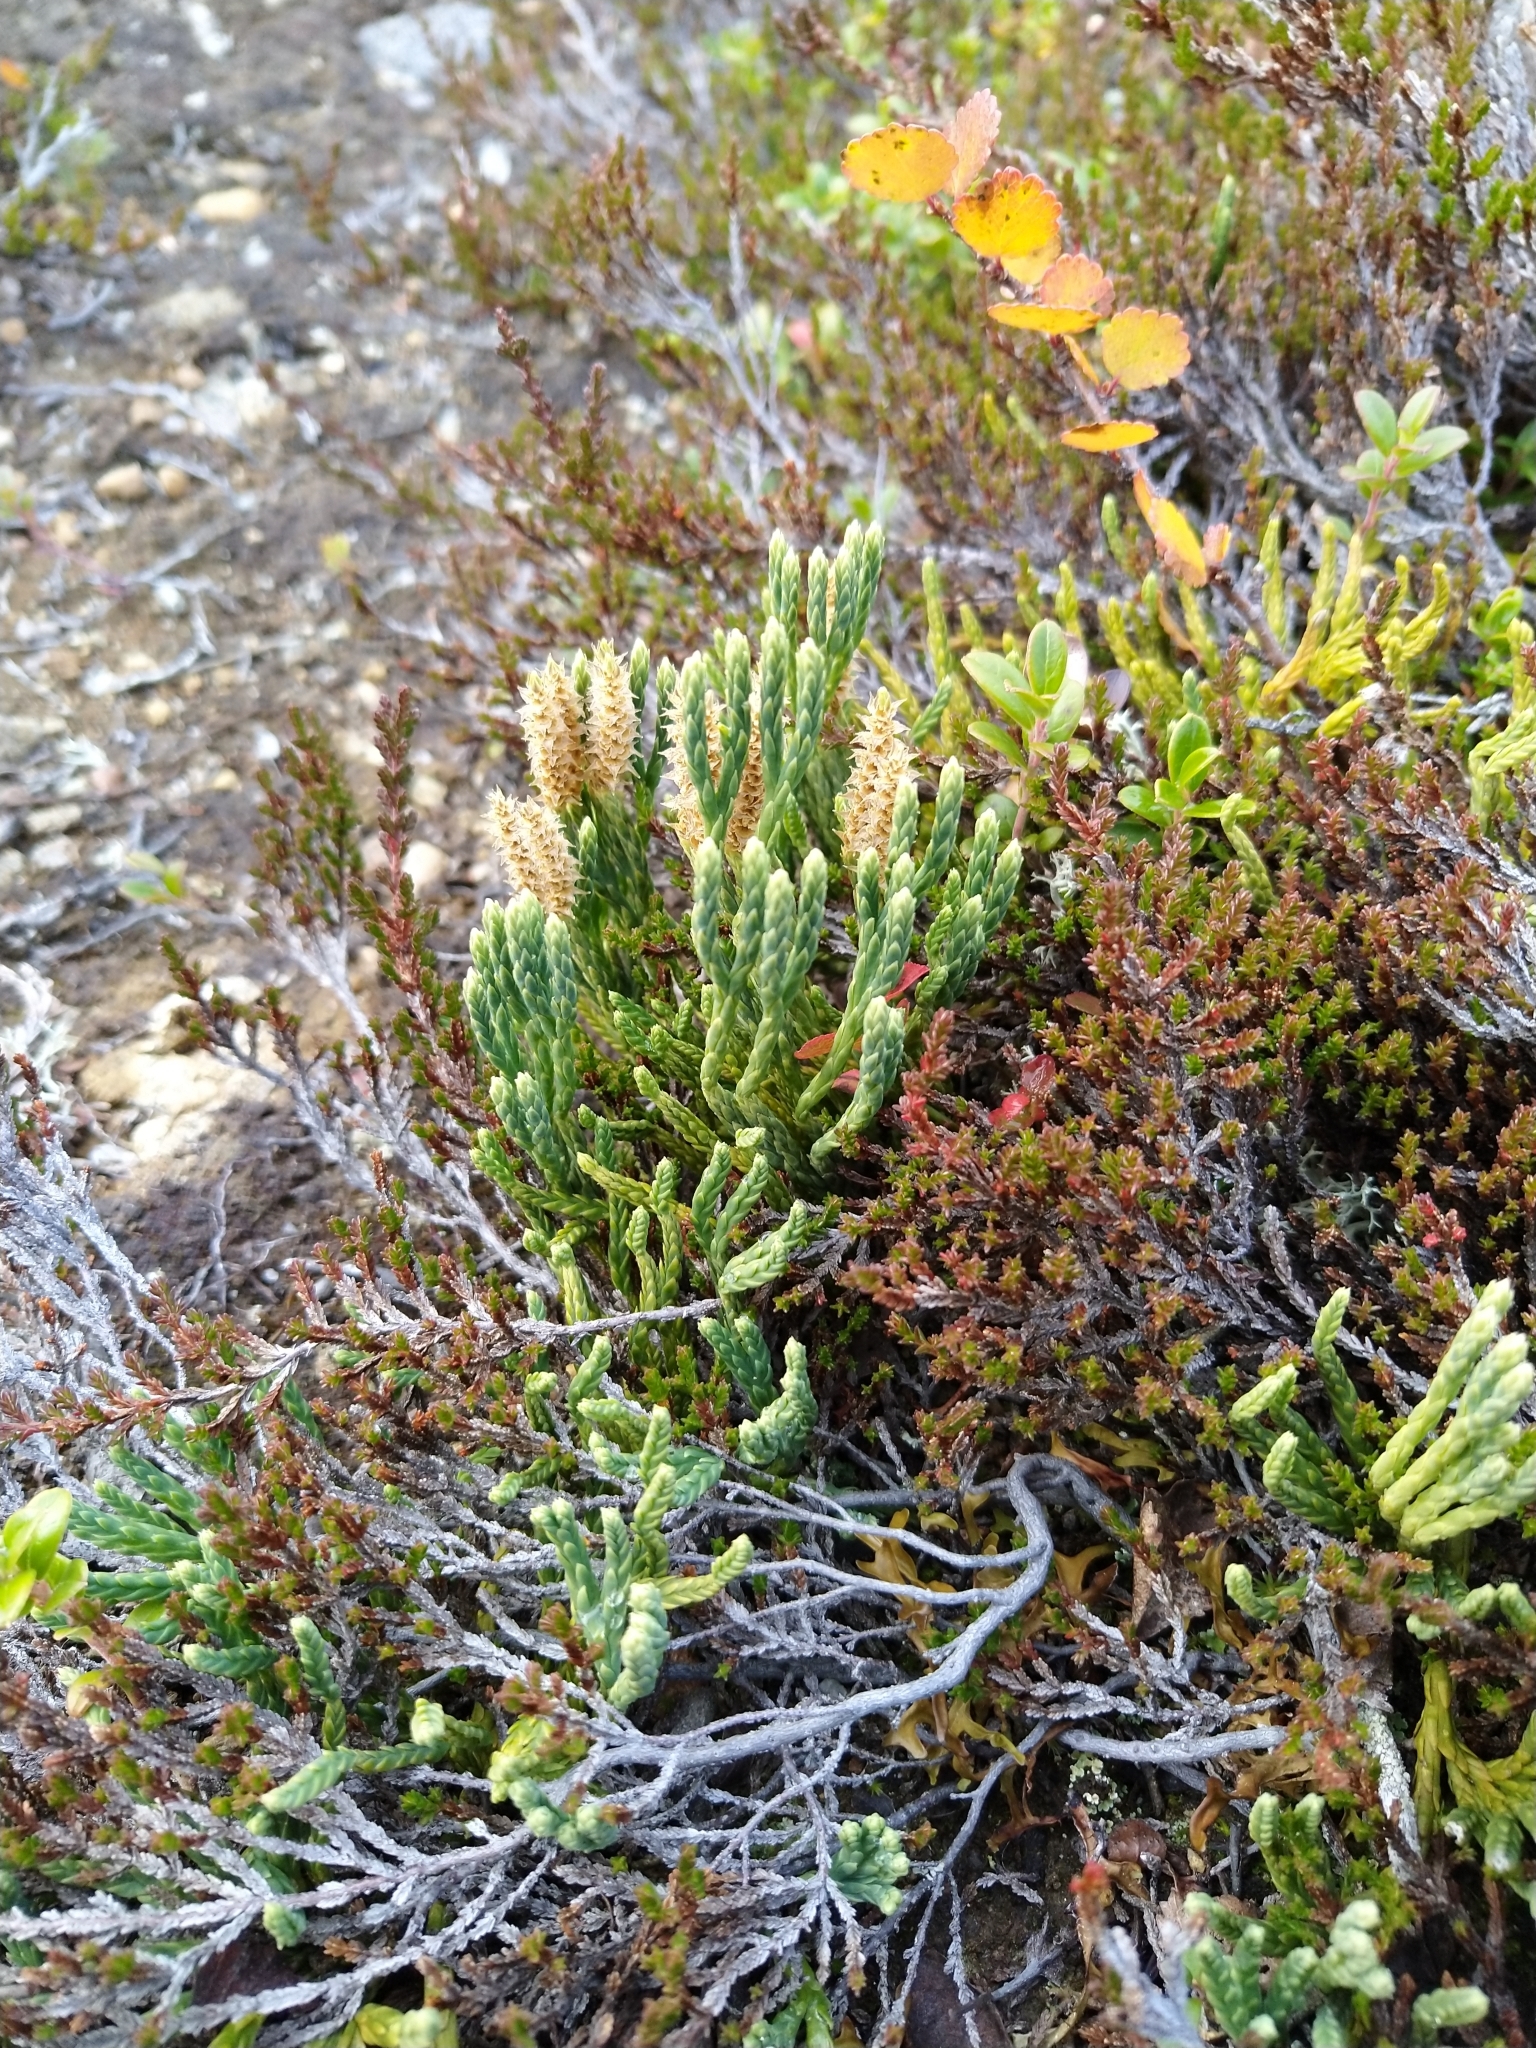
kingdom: Plantae
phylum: Tracheophyta
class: Lycopodiopsida
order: Lycopodiales
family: Lycopodiaceae
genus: Diphasiastrum
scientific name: Diphasiastrum alpinum
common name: Alpine clubmoss
